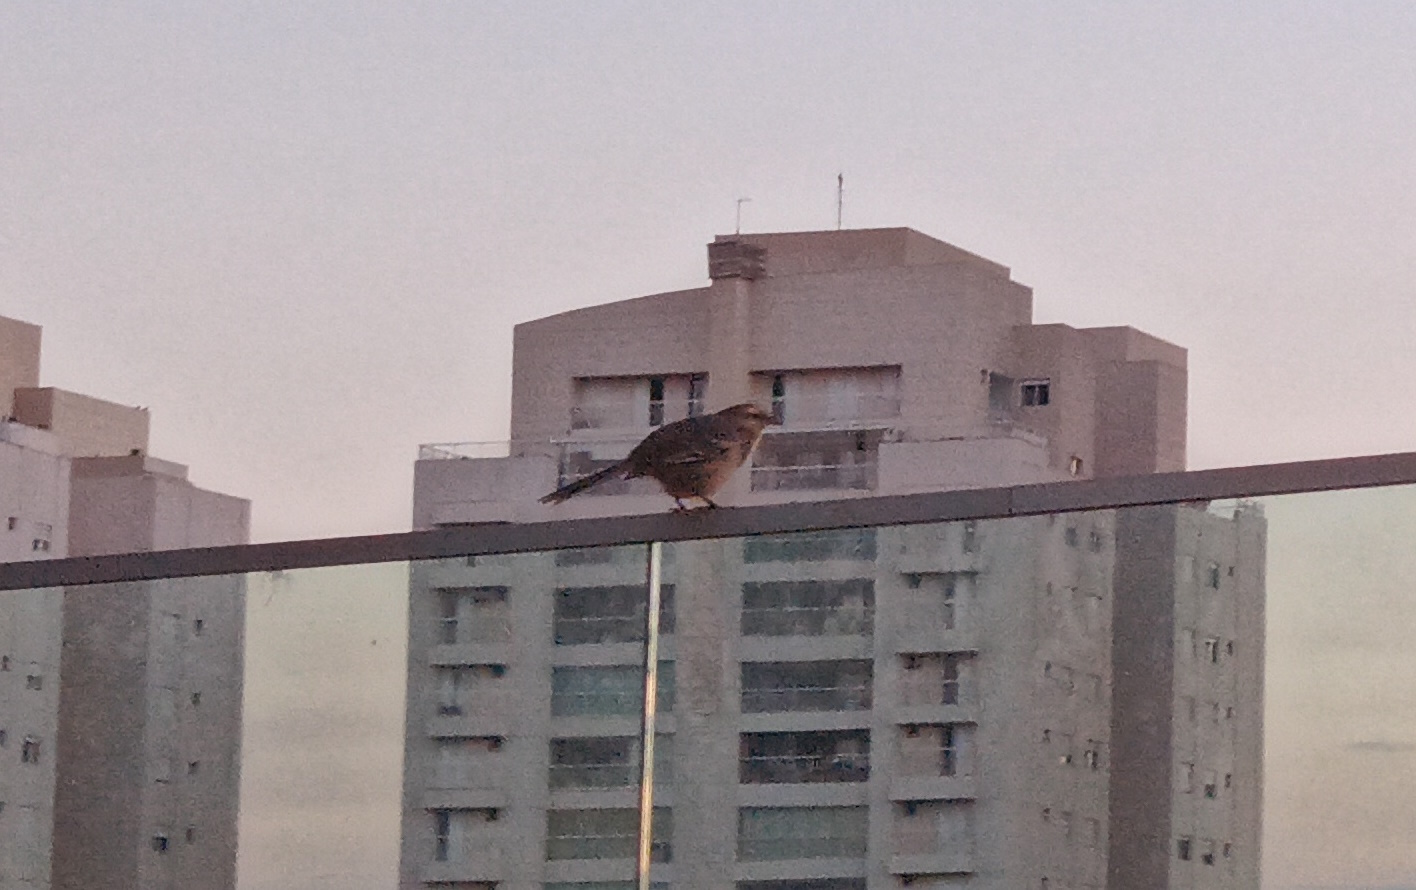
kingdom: Animalia
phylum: Chordata
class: Aves
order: Passeriformes
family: Mimidae
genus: Mimus
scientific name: Mimus saturninus
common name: Chalk-browed mockingbird
